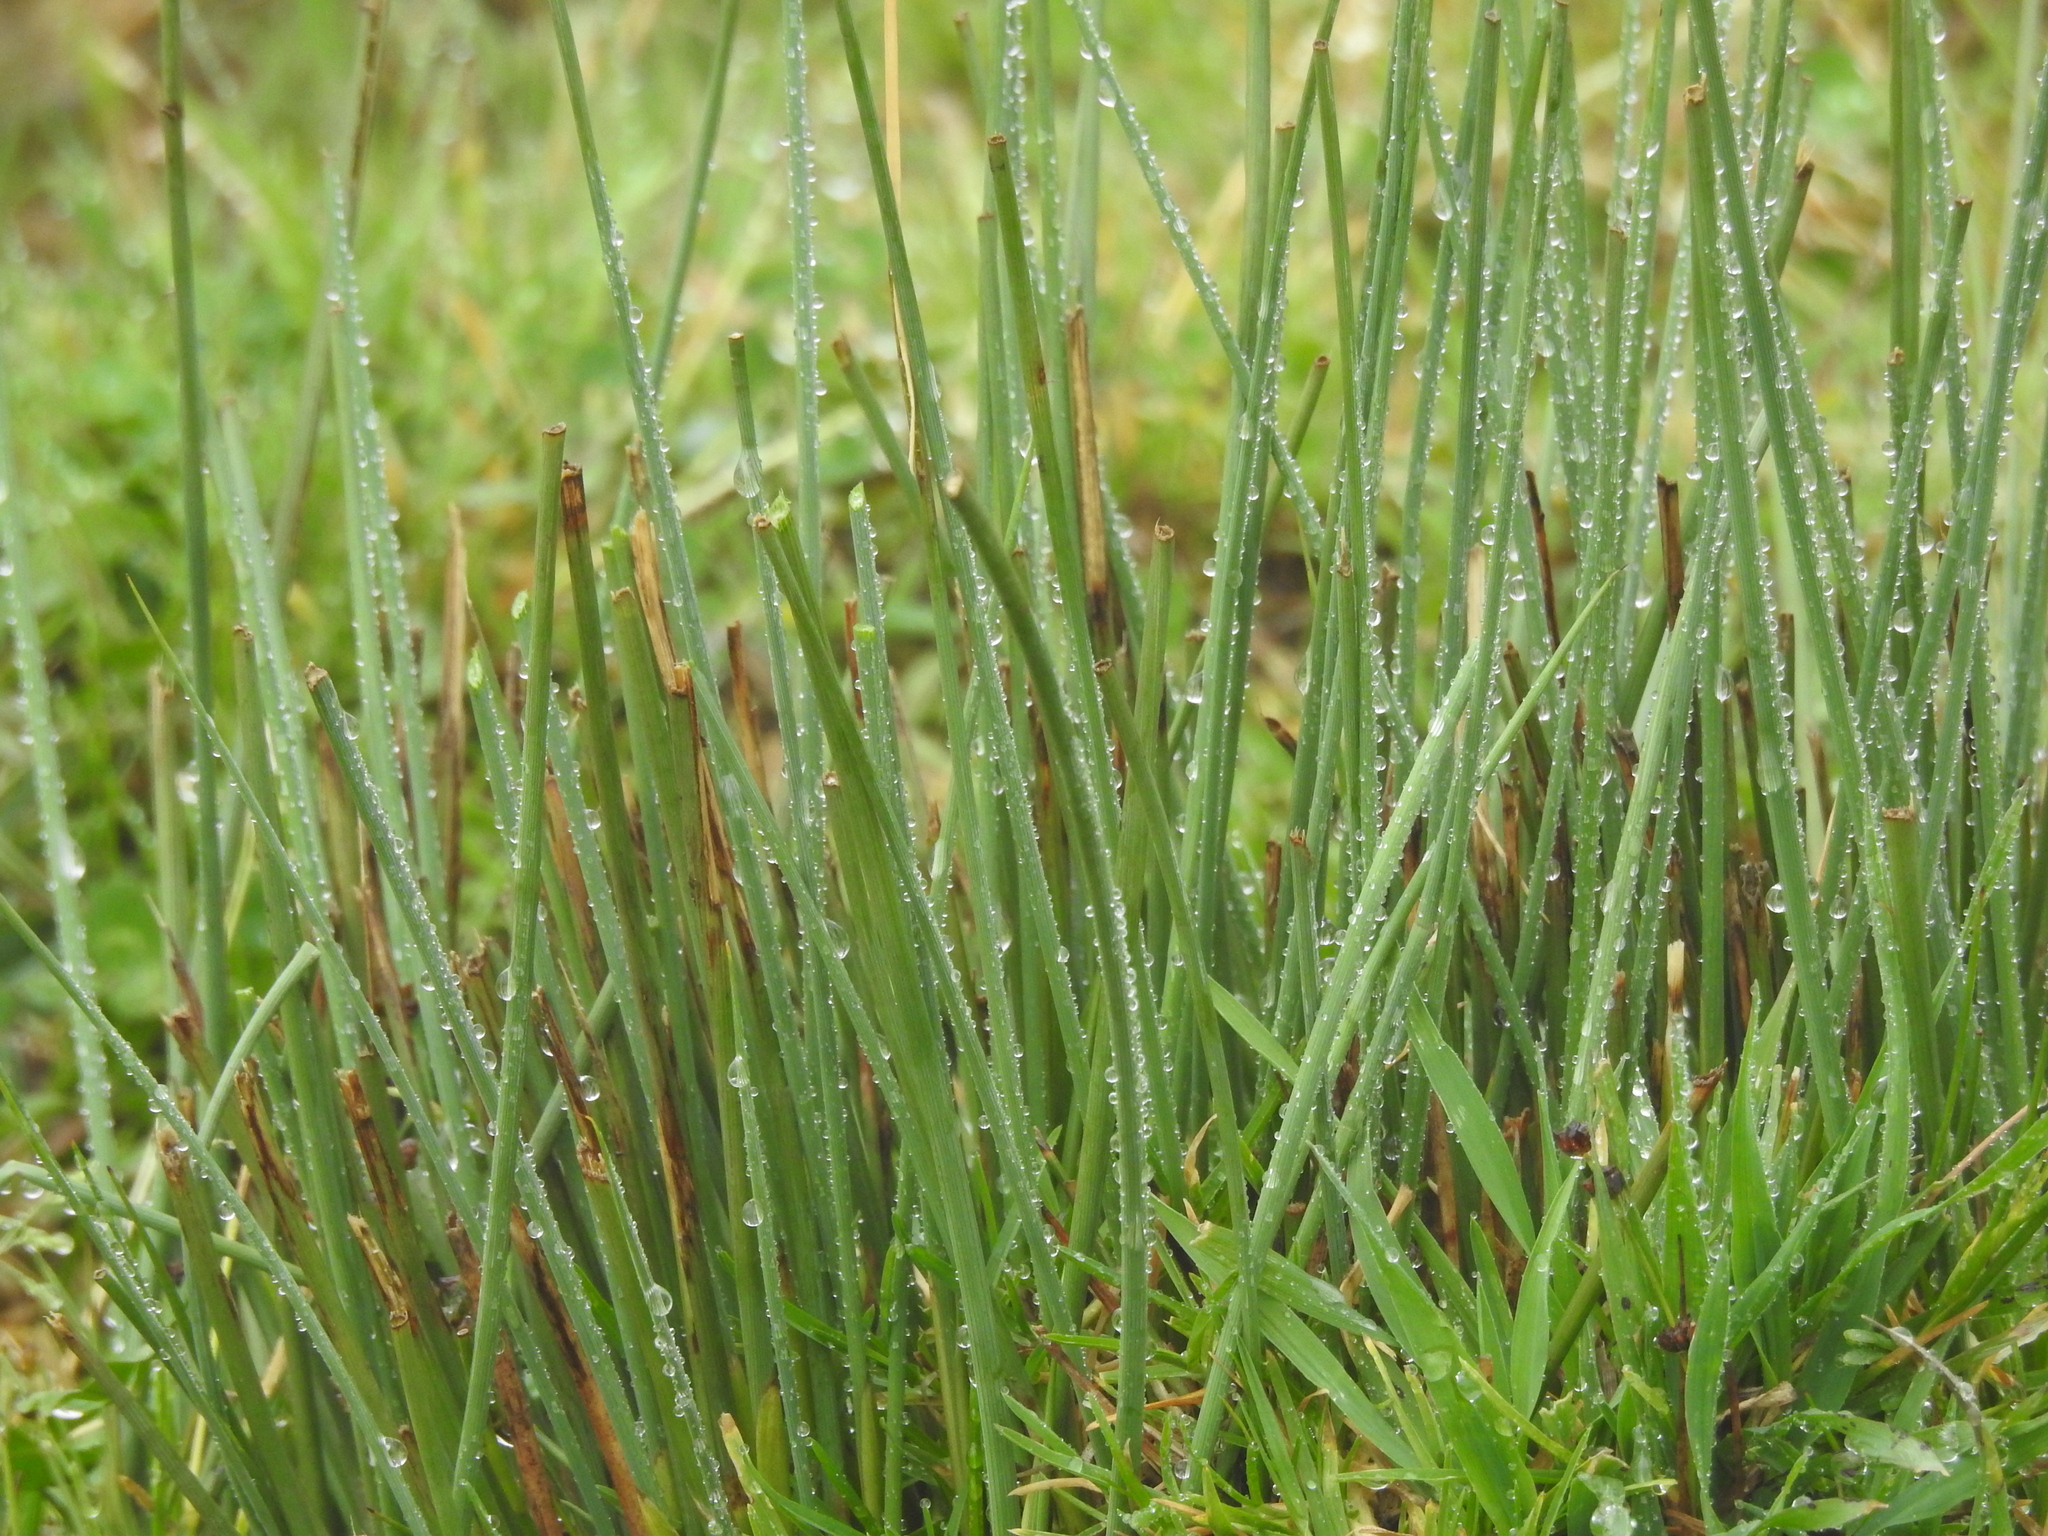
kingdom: Plantae
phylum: Tracheophyta
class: Liliopsida
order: Poales
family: Juncaceae
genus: Juncus
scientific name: Juncus inflexus
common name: Hard rush
